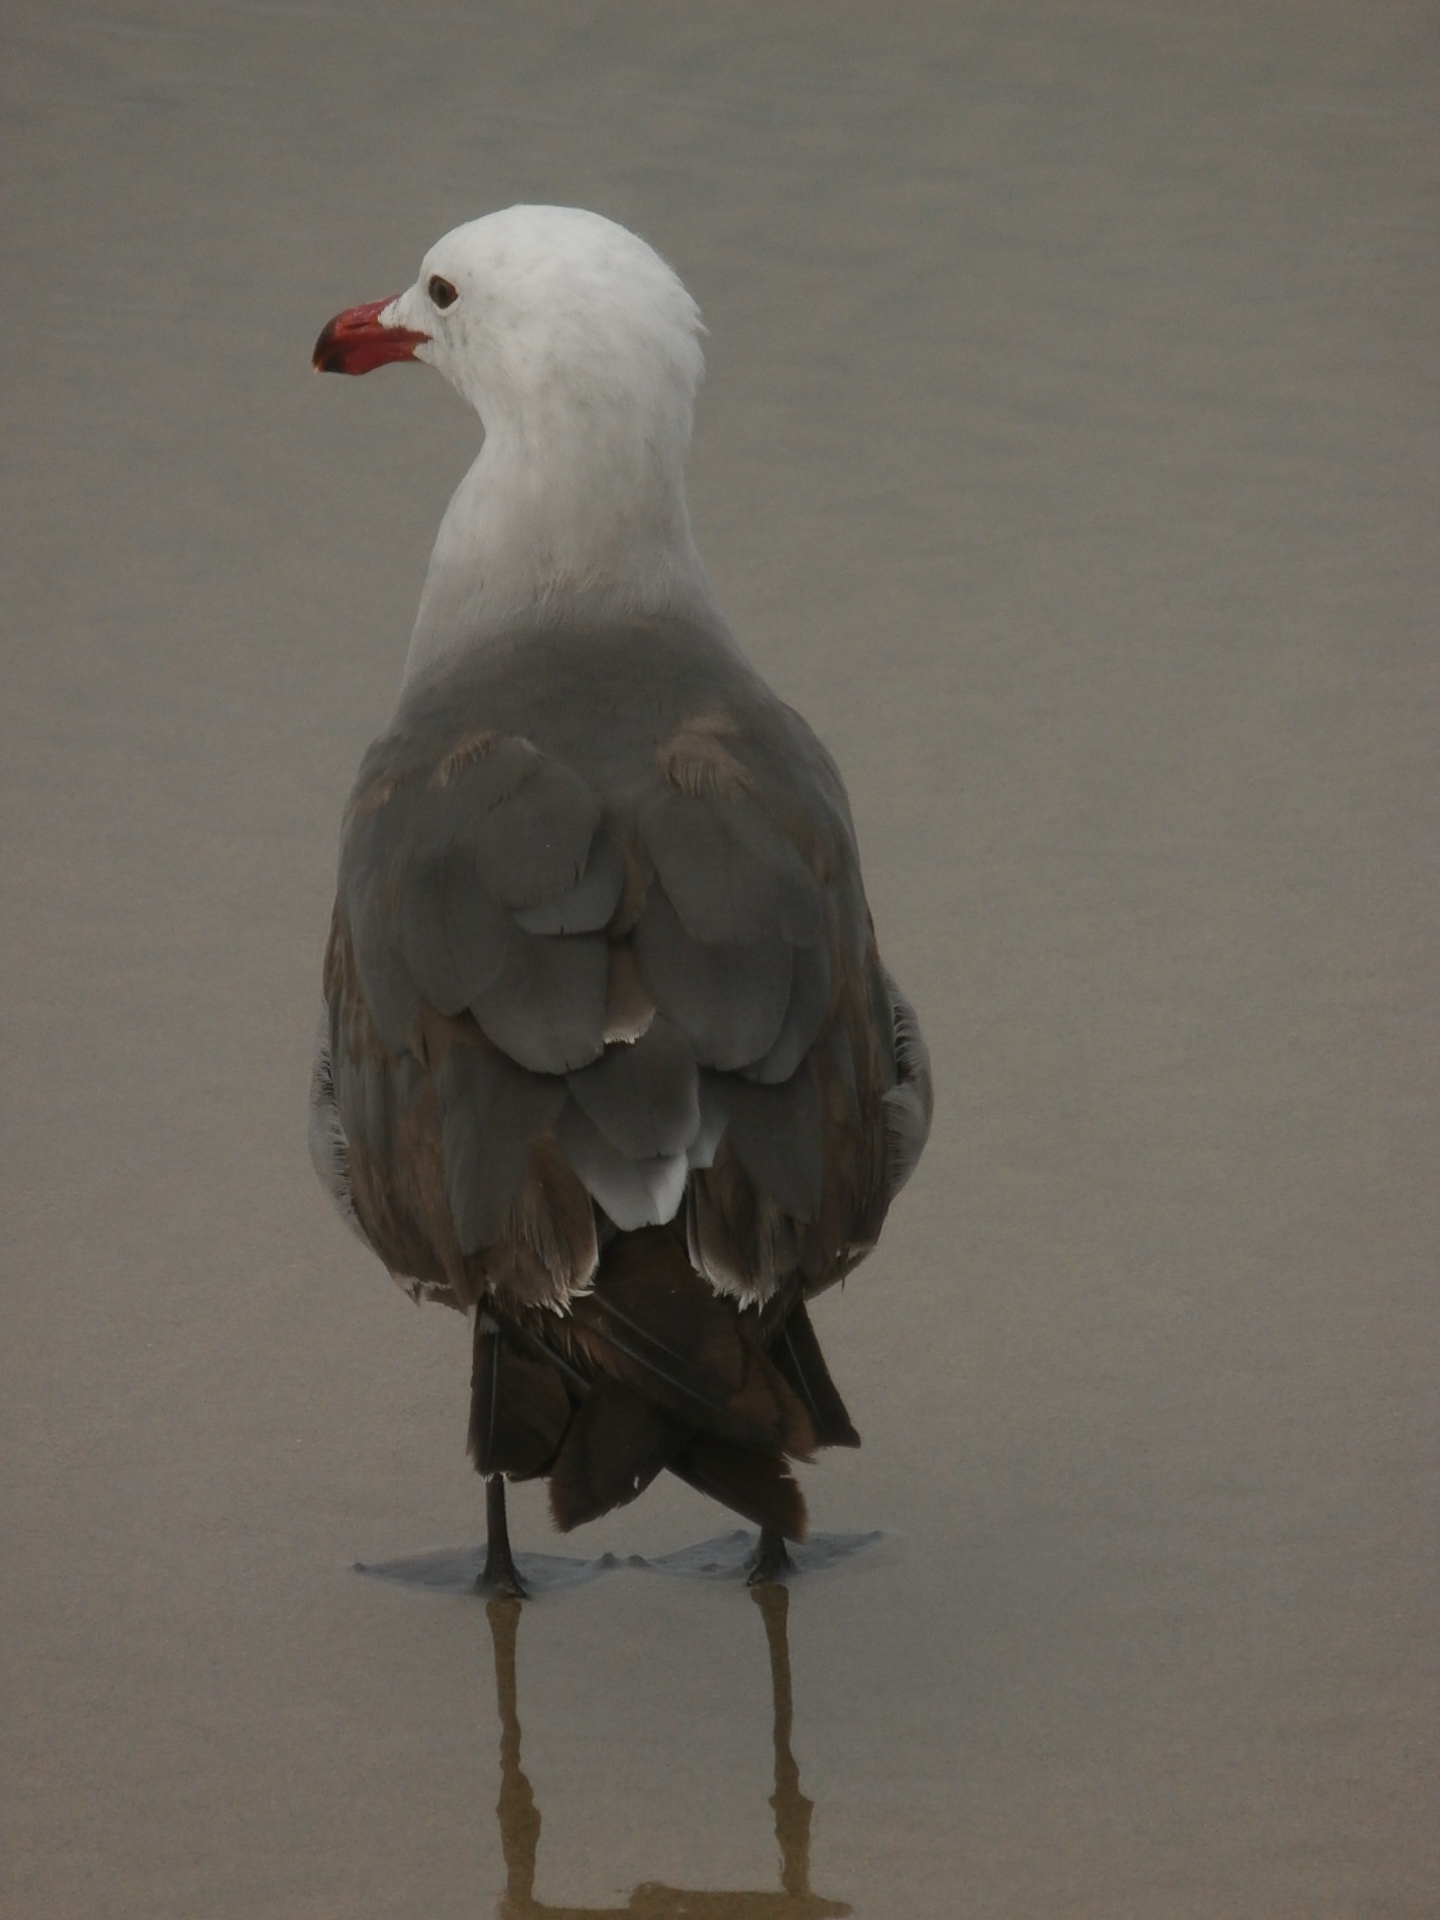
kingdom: Animalia
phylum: Chordata
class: Aves
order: Charadriiformes
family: Laridae
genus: Larus
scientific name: Larus heermanni
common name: Heermann's gull
